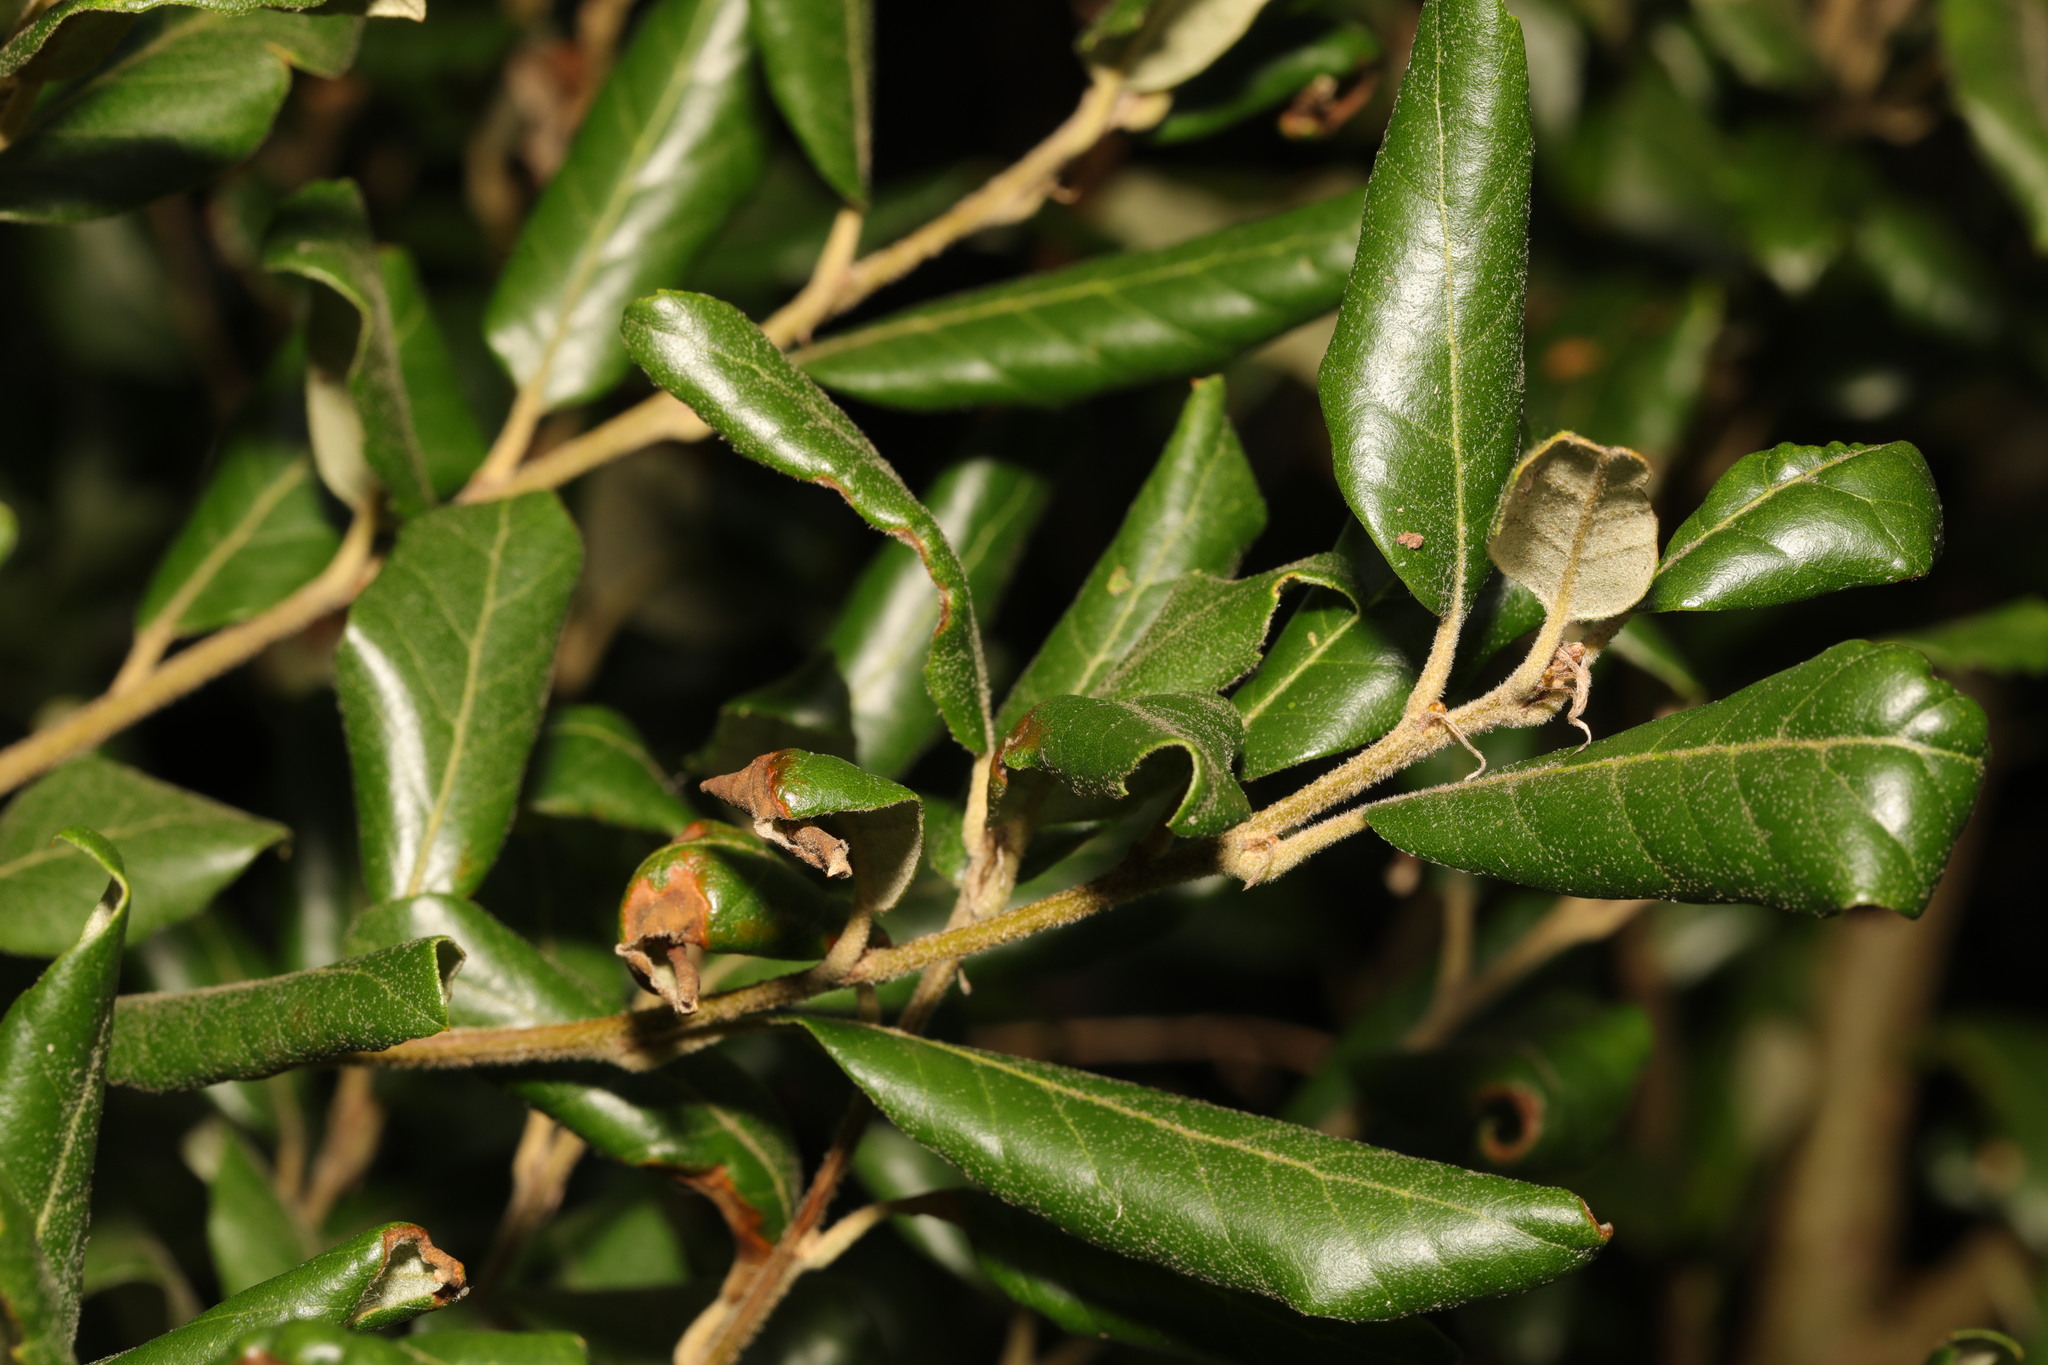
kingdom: Plantae
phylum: Tracheophyta
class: Magnoliopsida
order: Fagales
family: Fagaceae
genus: Quercus
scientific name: Quercus ilex
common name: Evergreen oak
